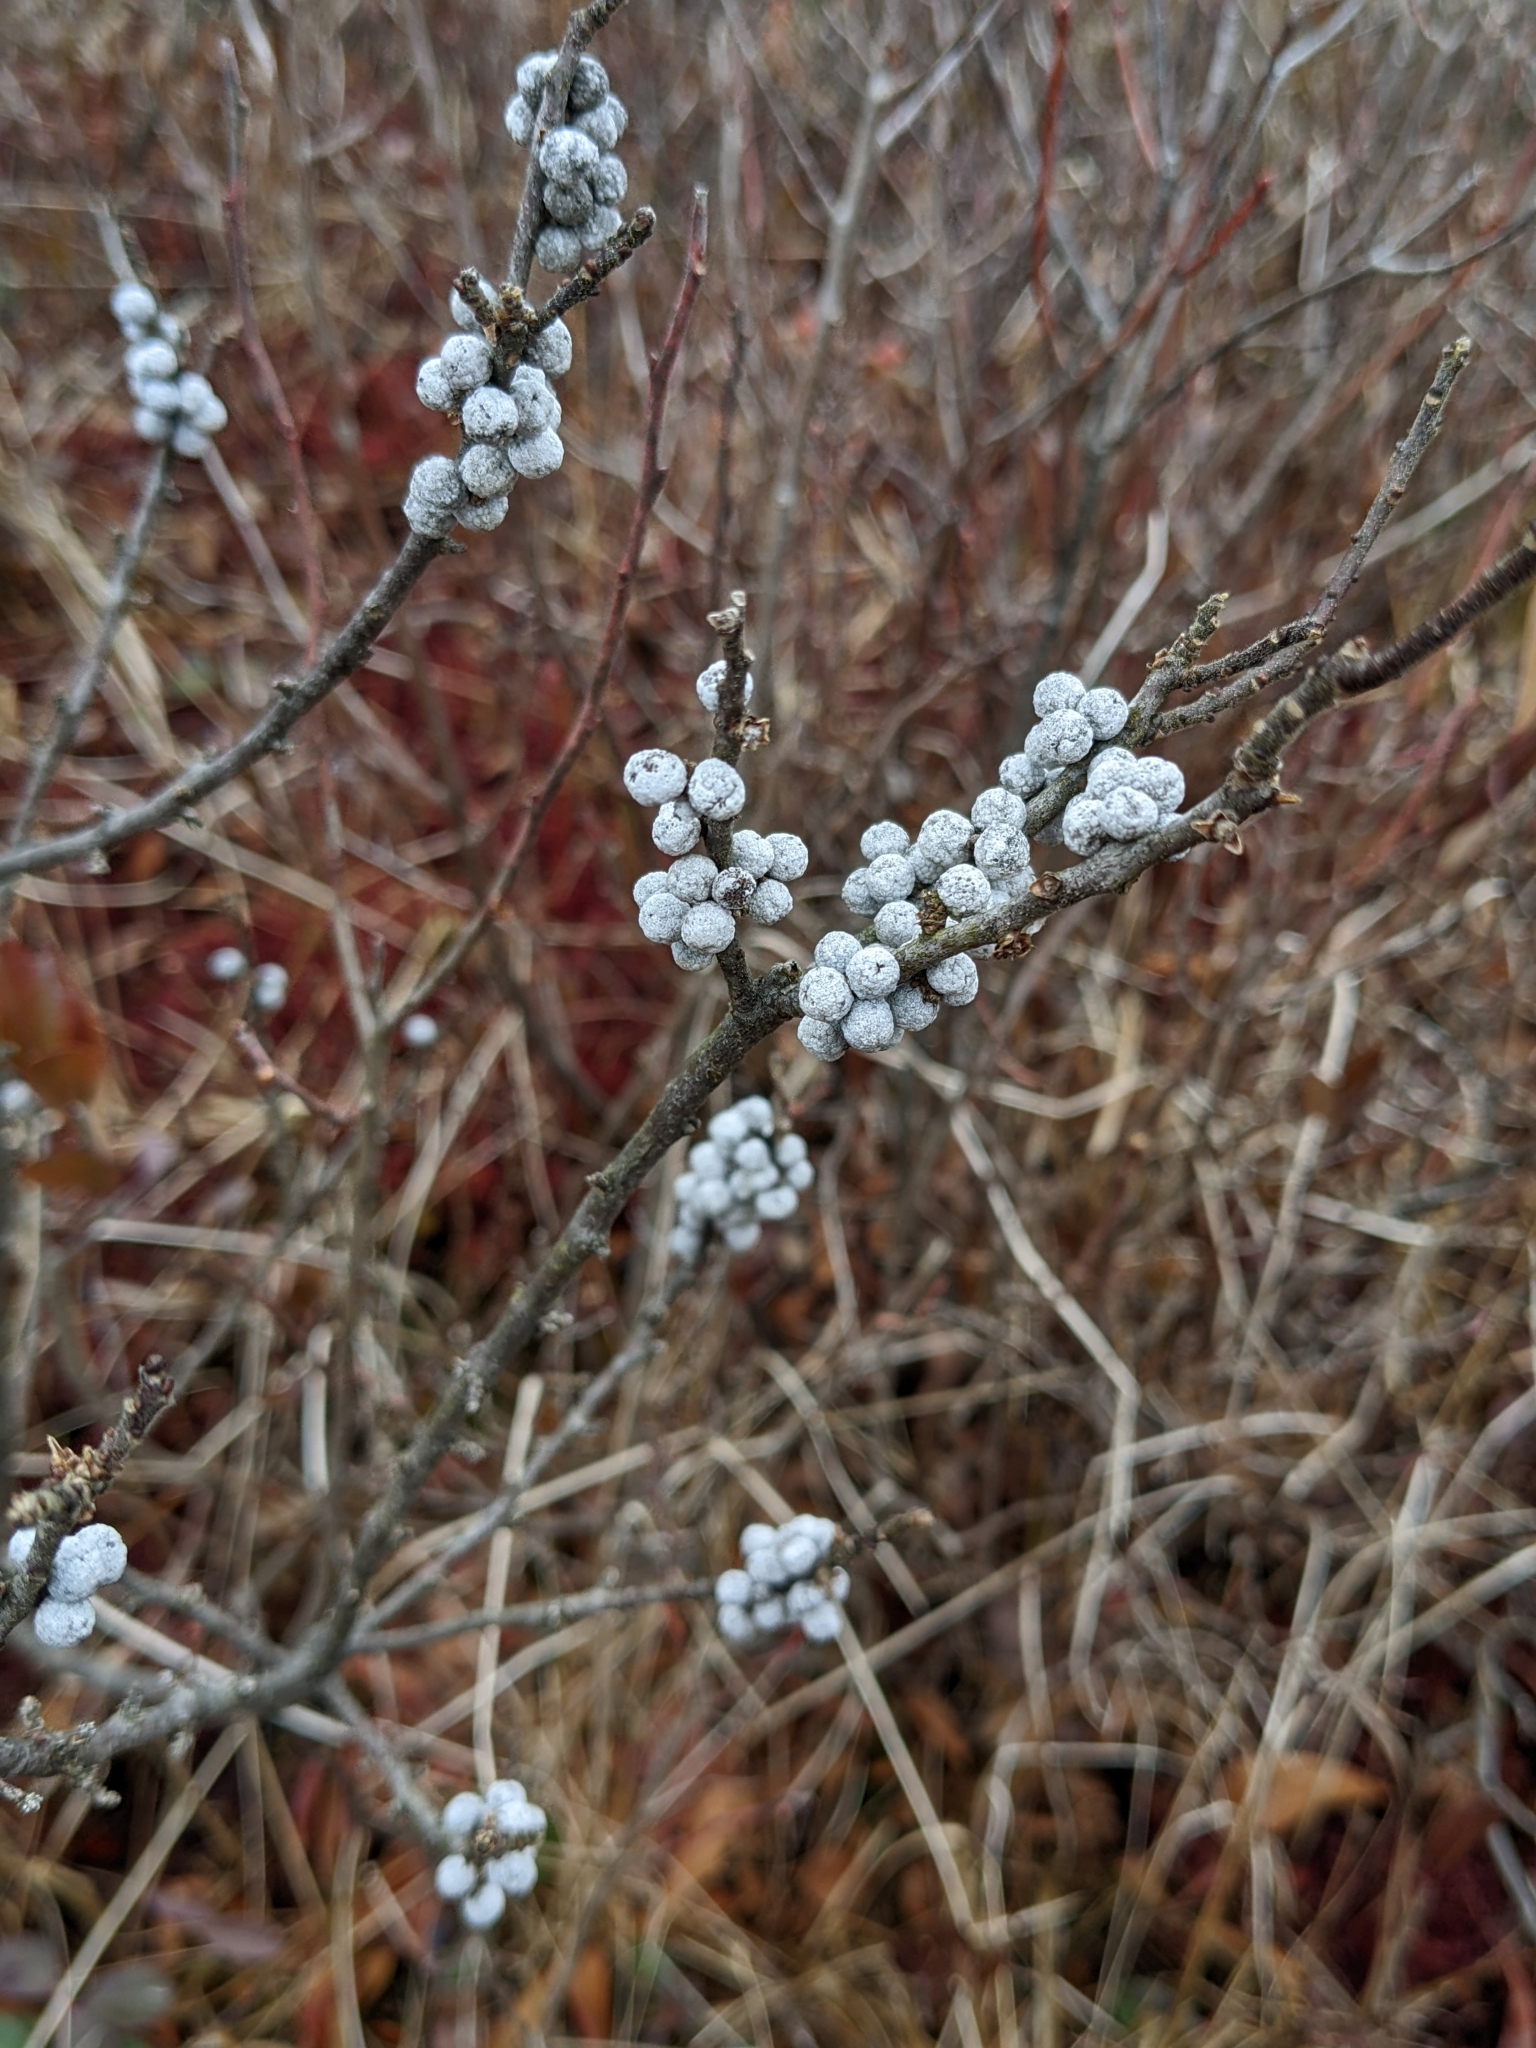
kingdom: Plantae
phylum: Tracheophyta
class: Magnoliopsida
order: Fagales
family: Myricaceae
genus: Morella
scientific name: Morella pensylvanica
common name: Northern bayberry
